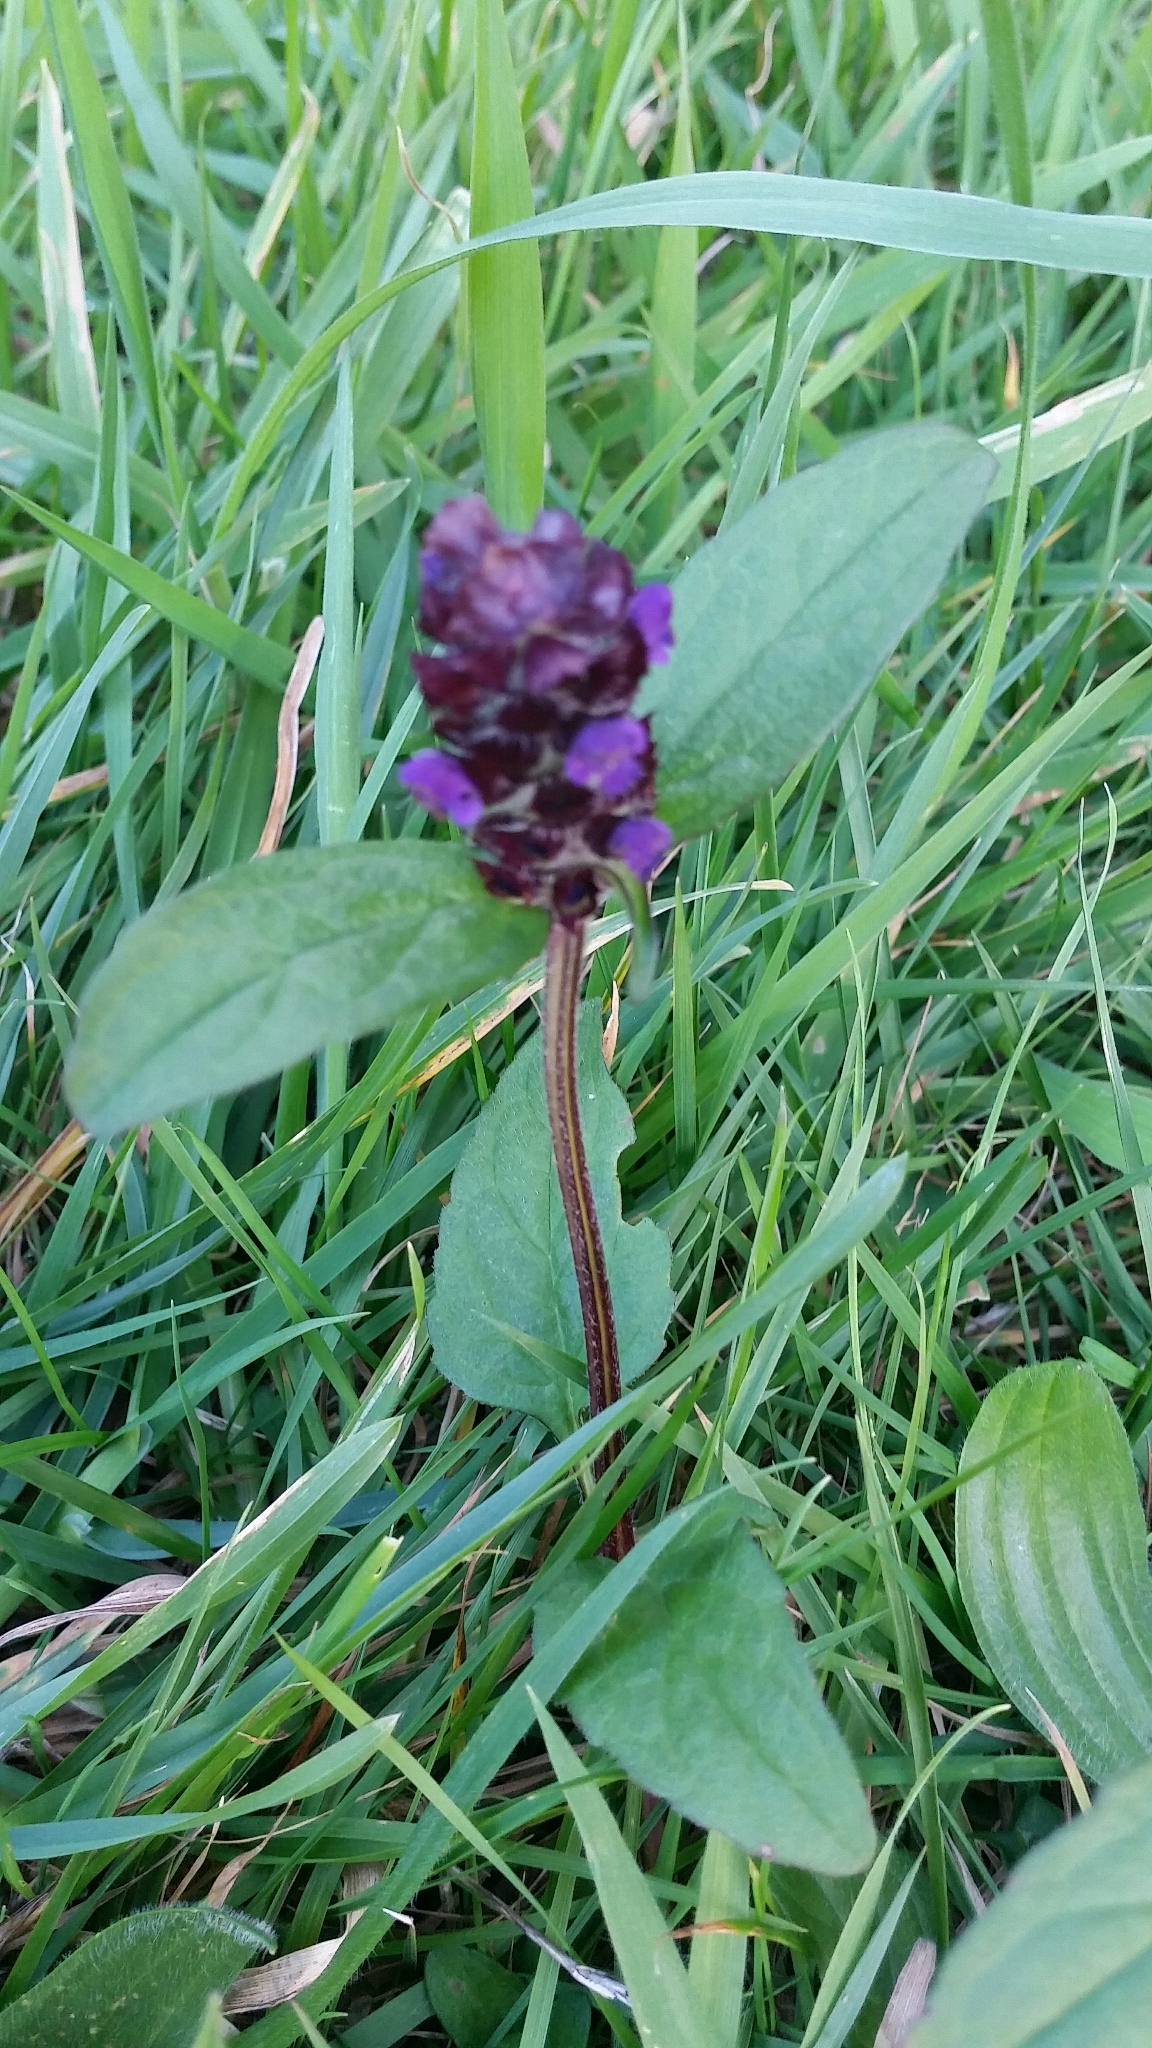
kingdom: Plantae
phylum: Tracheophyta
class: Magnoliopsida
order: Lamiales
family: Lamiaceae
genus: Prunella
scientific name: Prunella vulgaris
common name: Heal-all
